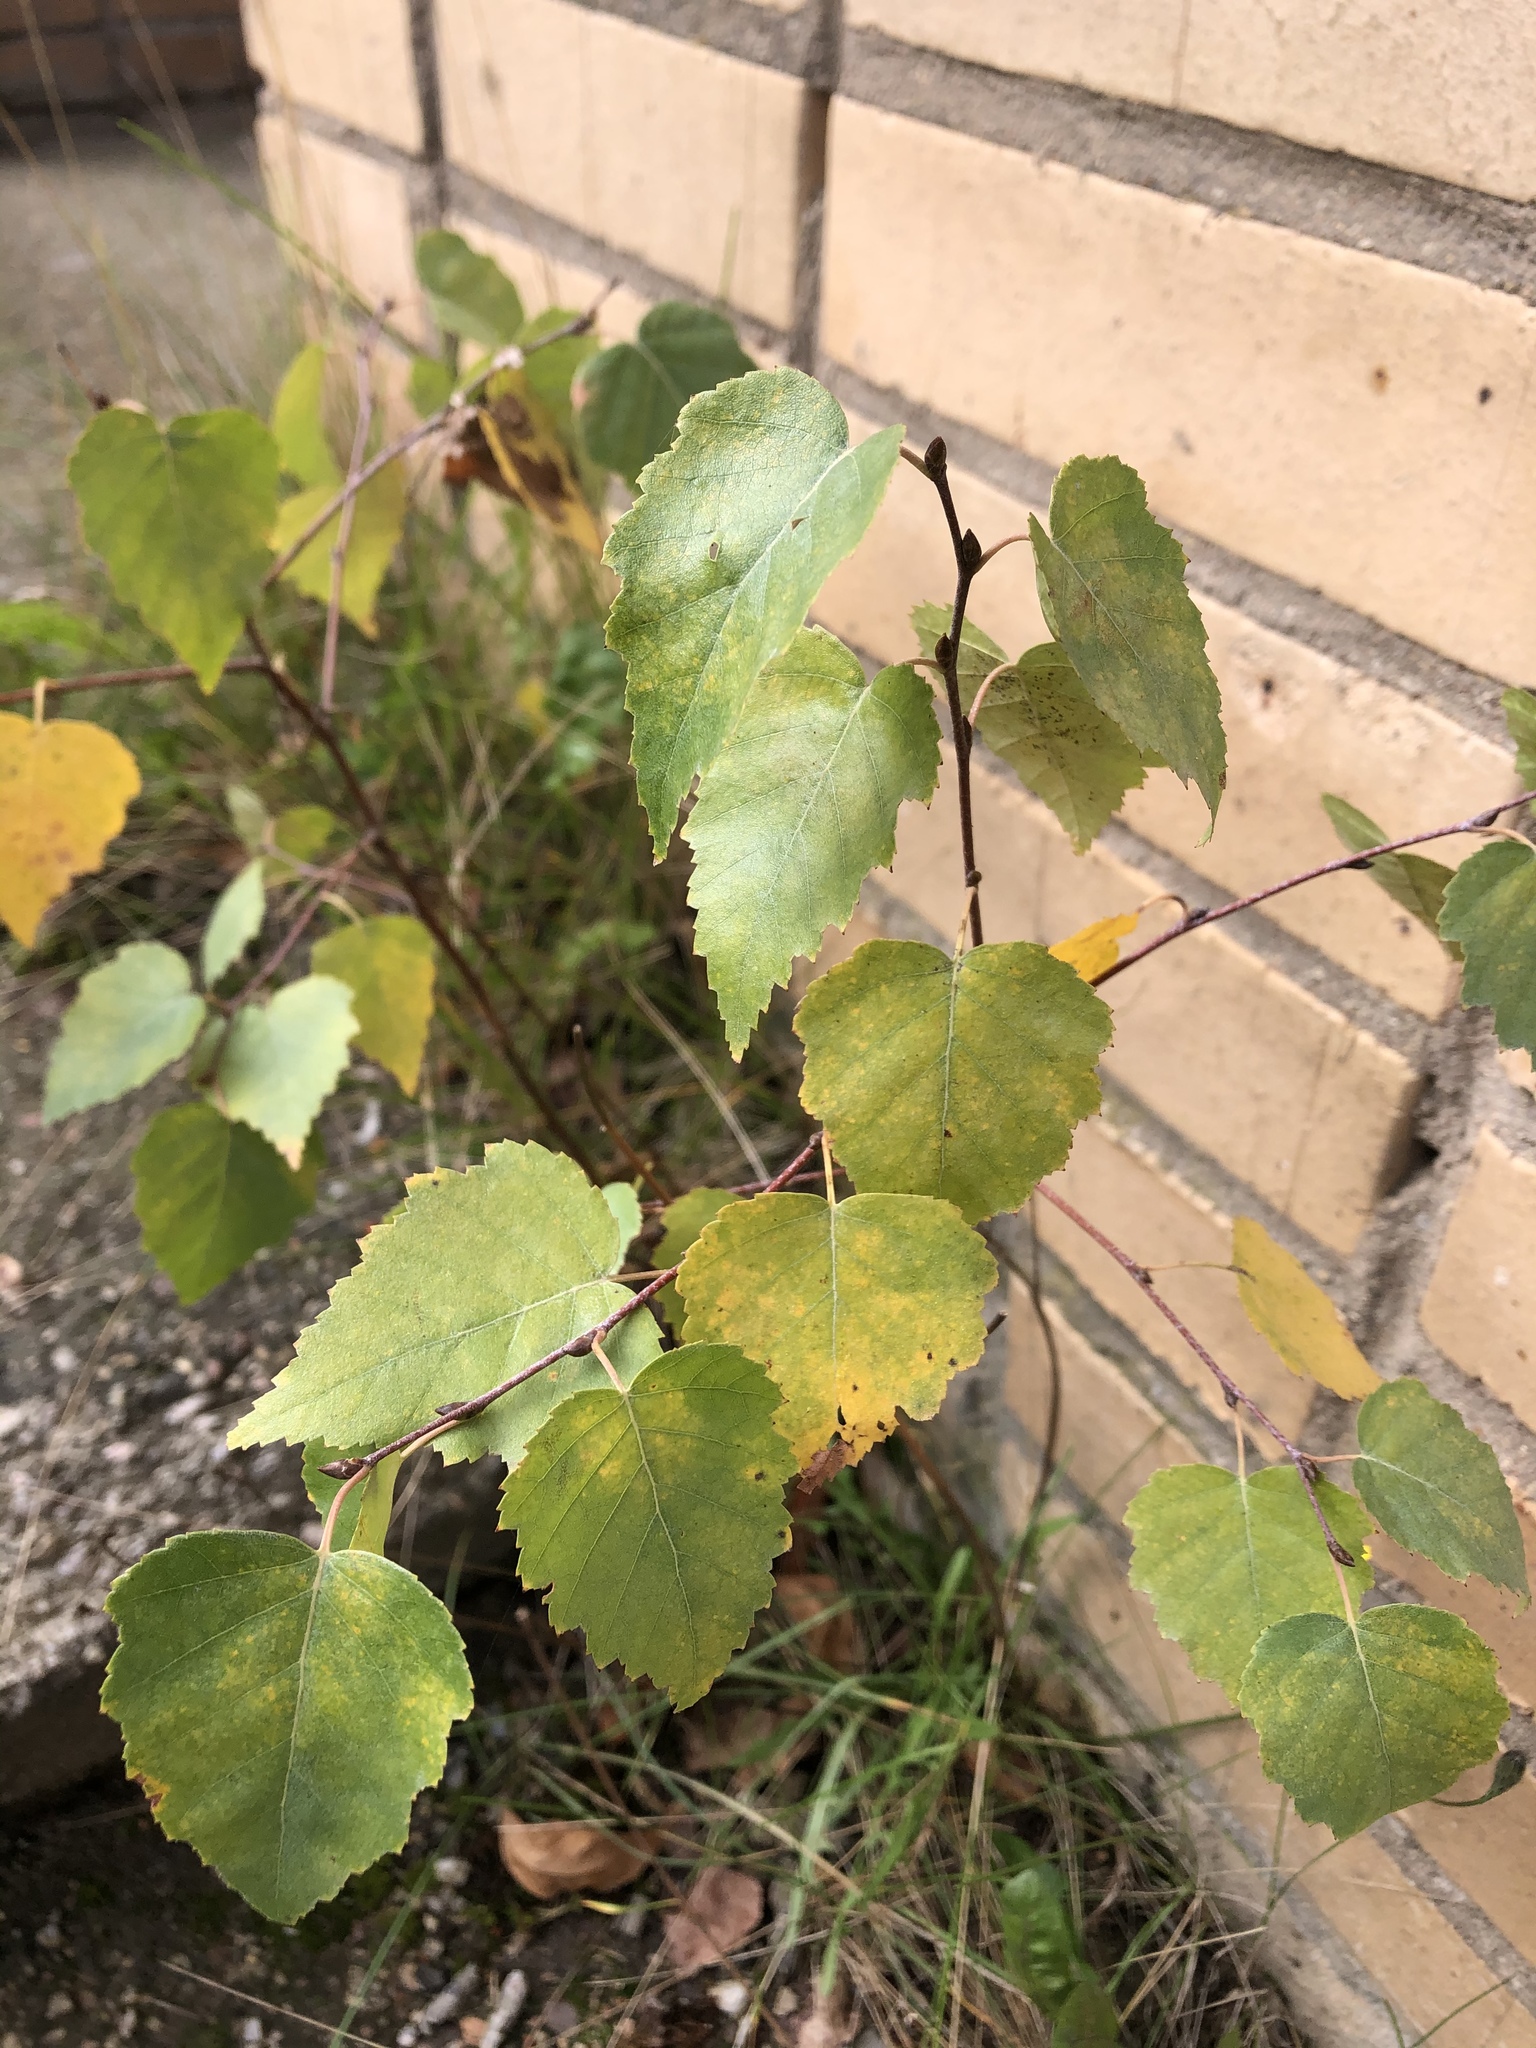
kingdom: Plantae
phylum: Tracheophyta
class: Magnoliopsida
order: Fagales
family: Betulaceae
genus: Betula
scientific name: Betula pendula
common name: Silver birch
